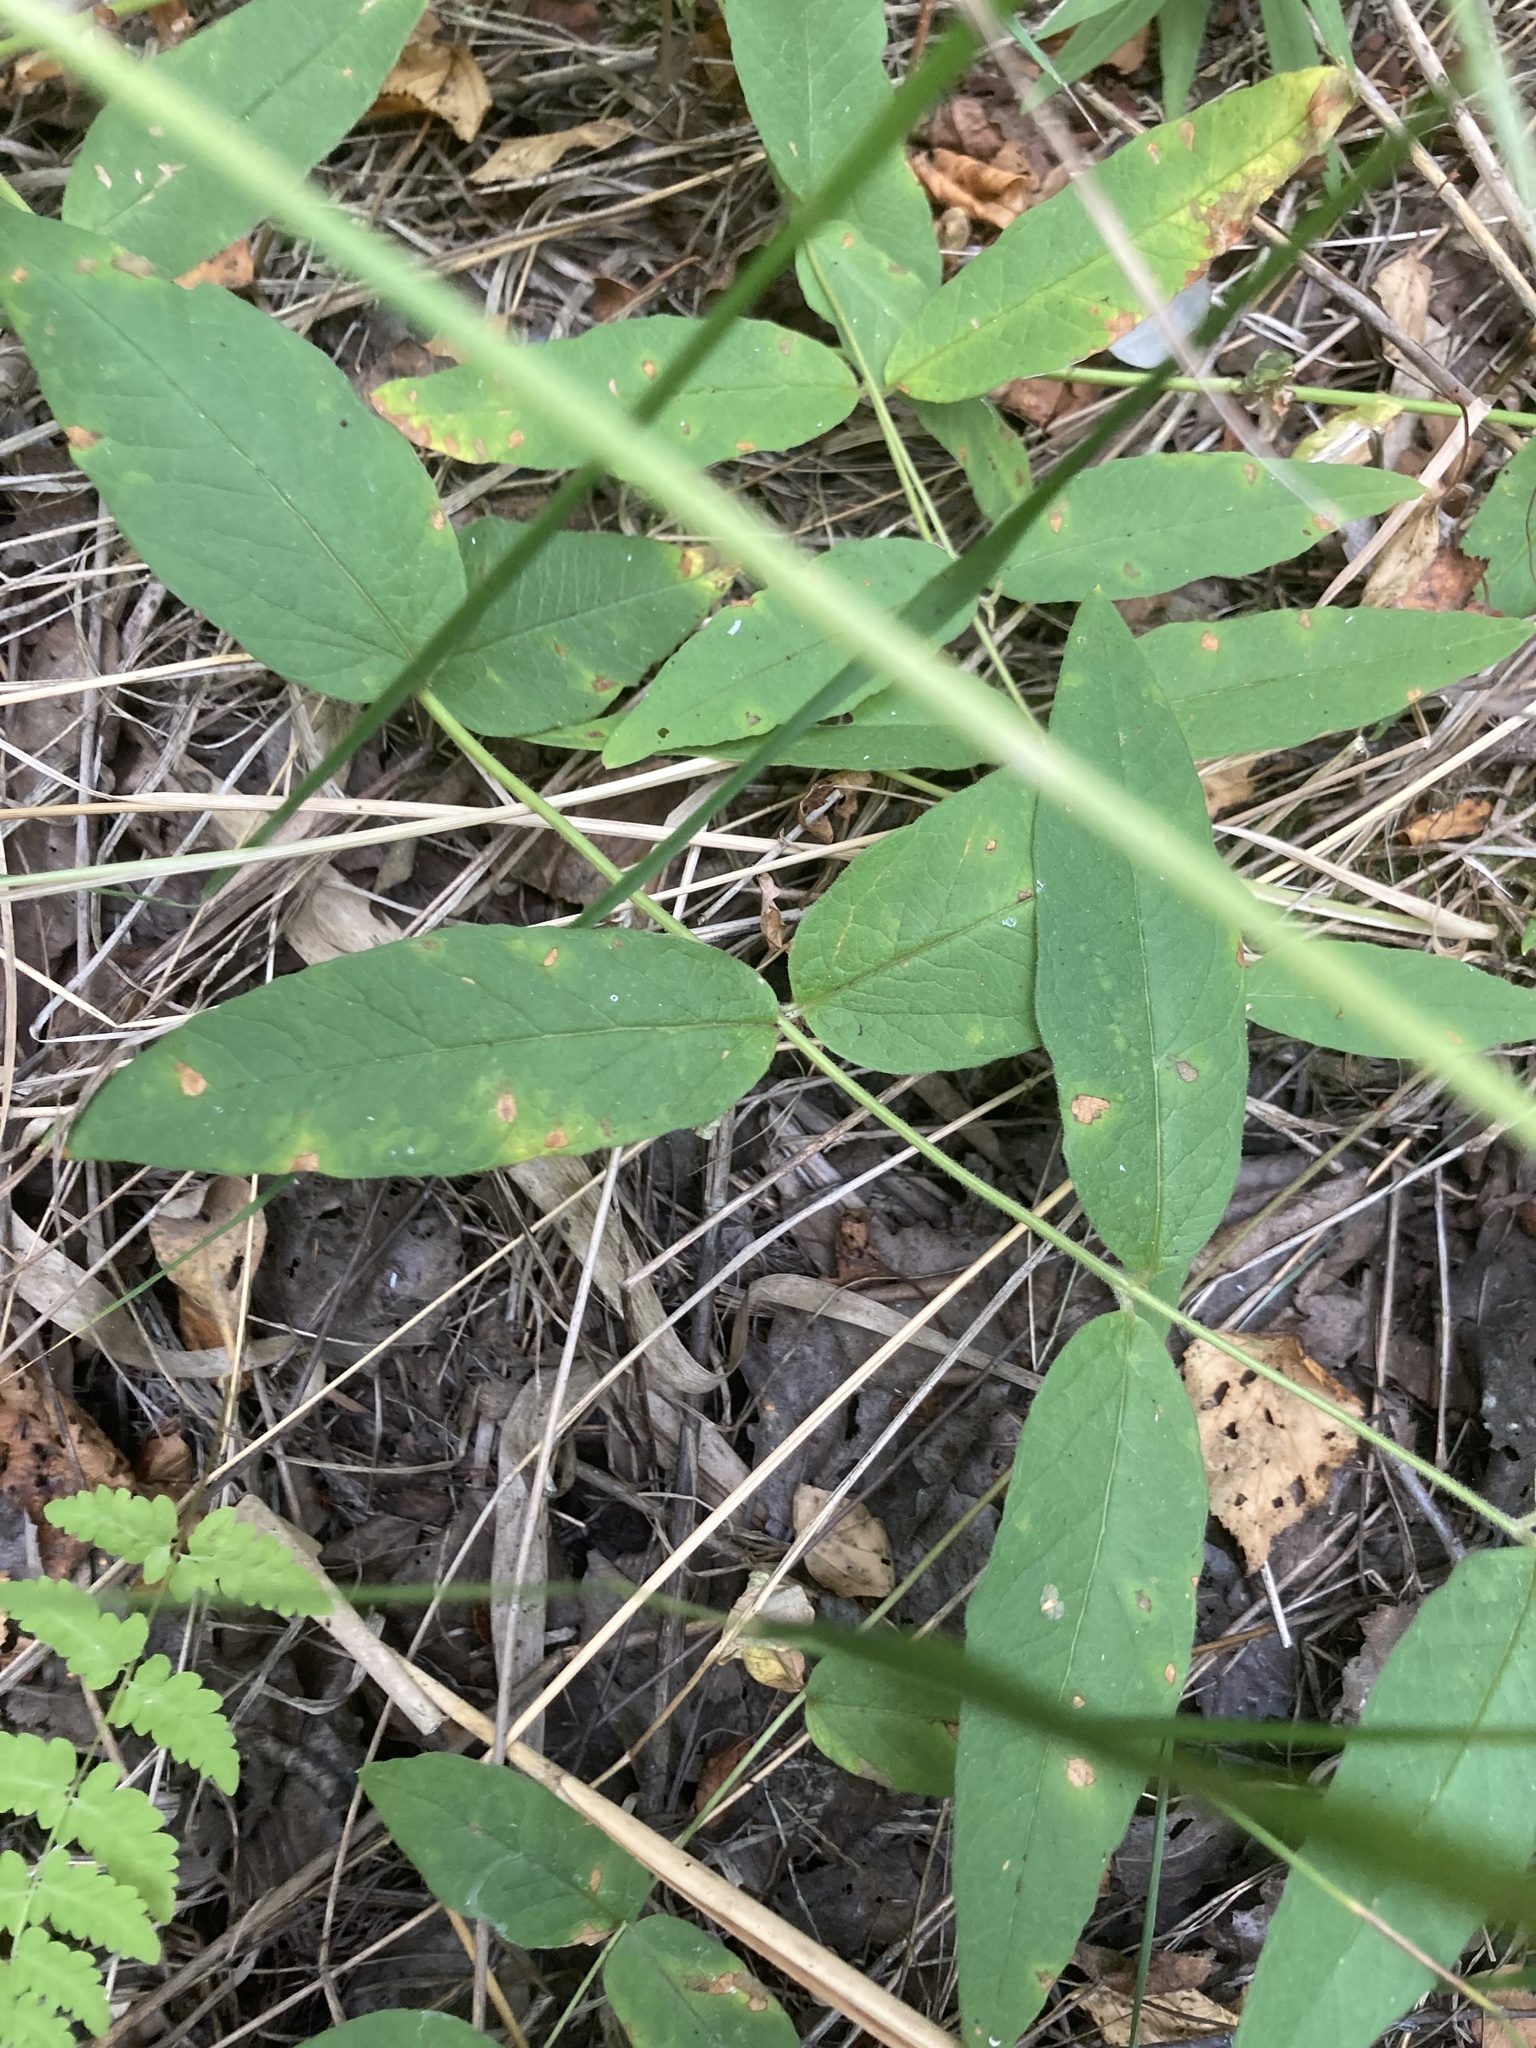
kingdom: Plantae
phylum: Tracheophyta
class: Magnoliopsida
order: Ericales
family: Primulaceae
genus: Lysimachia
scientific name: Lysimachia vulgaris
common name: Yellow loosestrife
